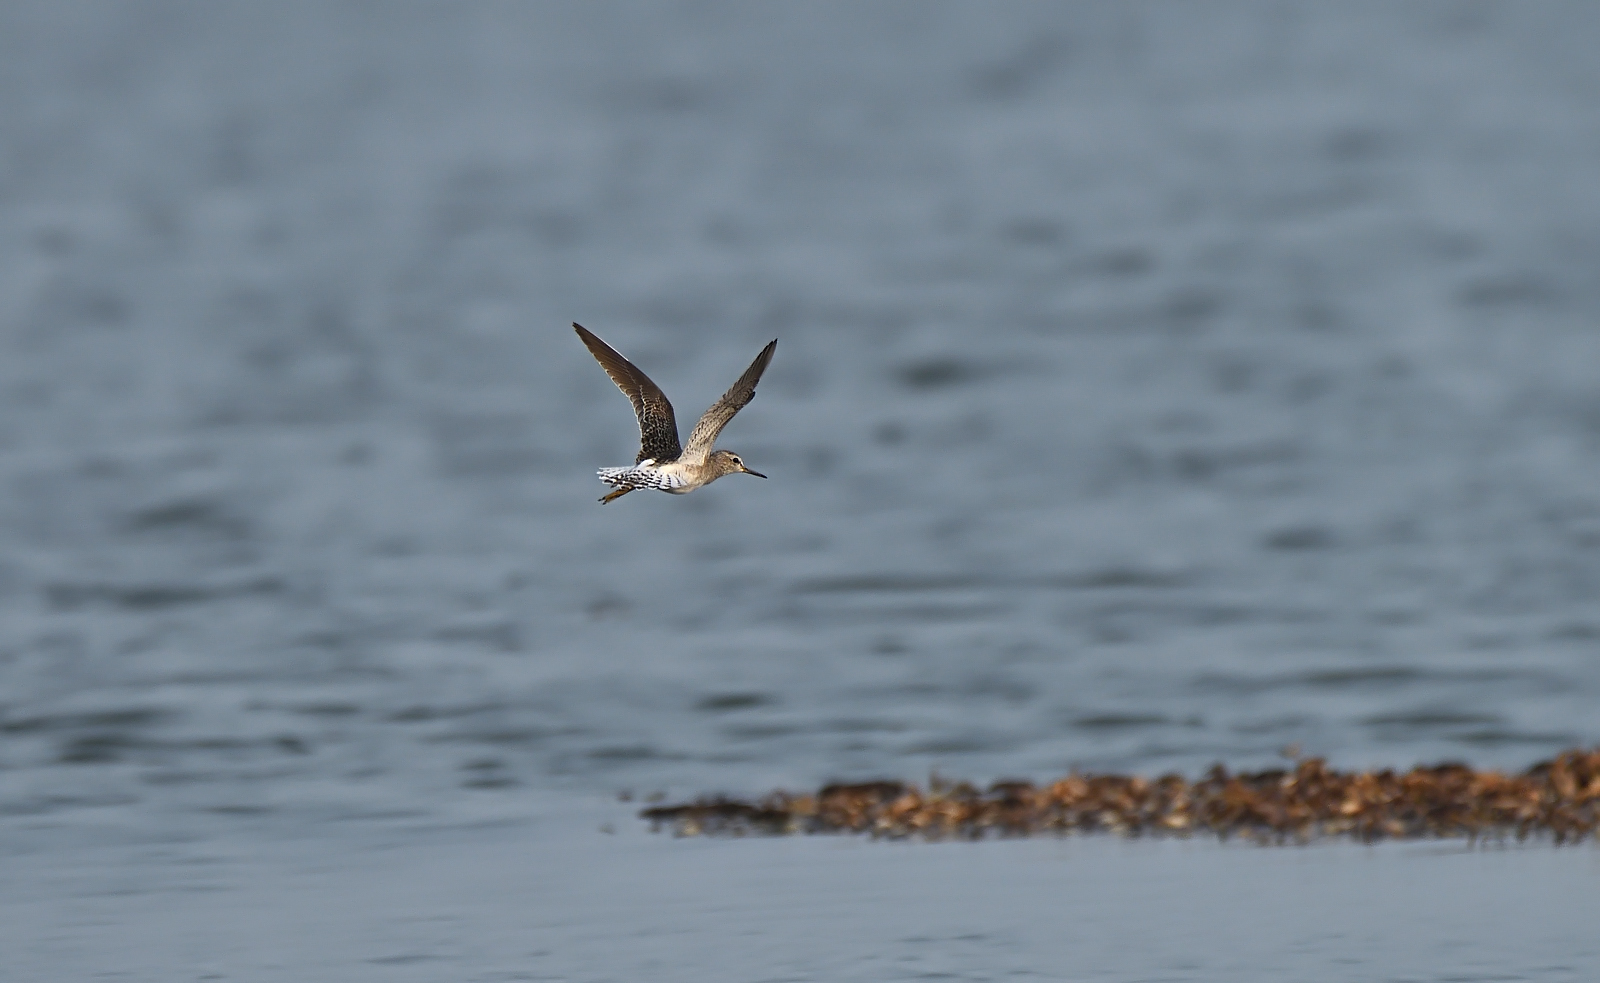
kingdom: Animalia
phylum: Chordata
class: Aves
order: Charadriiformes
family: Scolopacidae
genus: Tringa
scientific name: Tringa glareola
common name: Wood sandpiper
